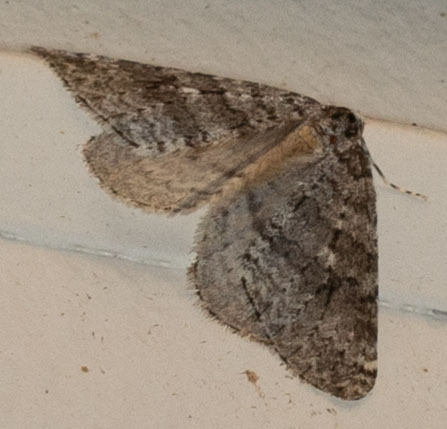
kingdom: Animalia
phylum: Arthropoda
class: Insecta
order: Lepidoptera
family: Geometridae
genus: Operophtera
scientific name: Operophtera danbyi
